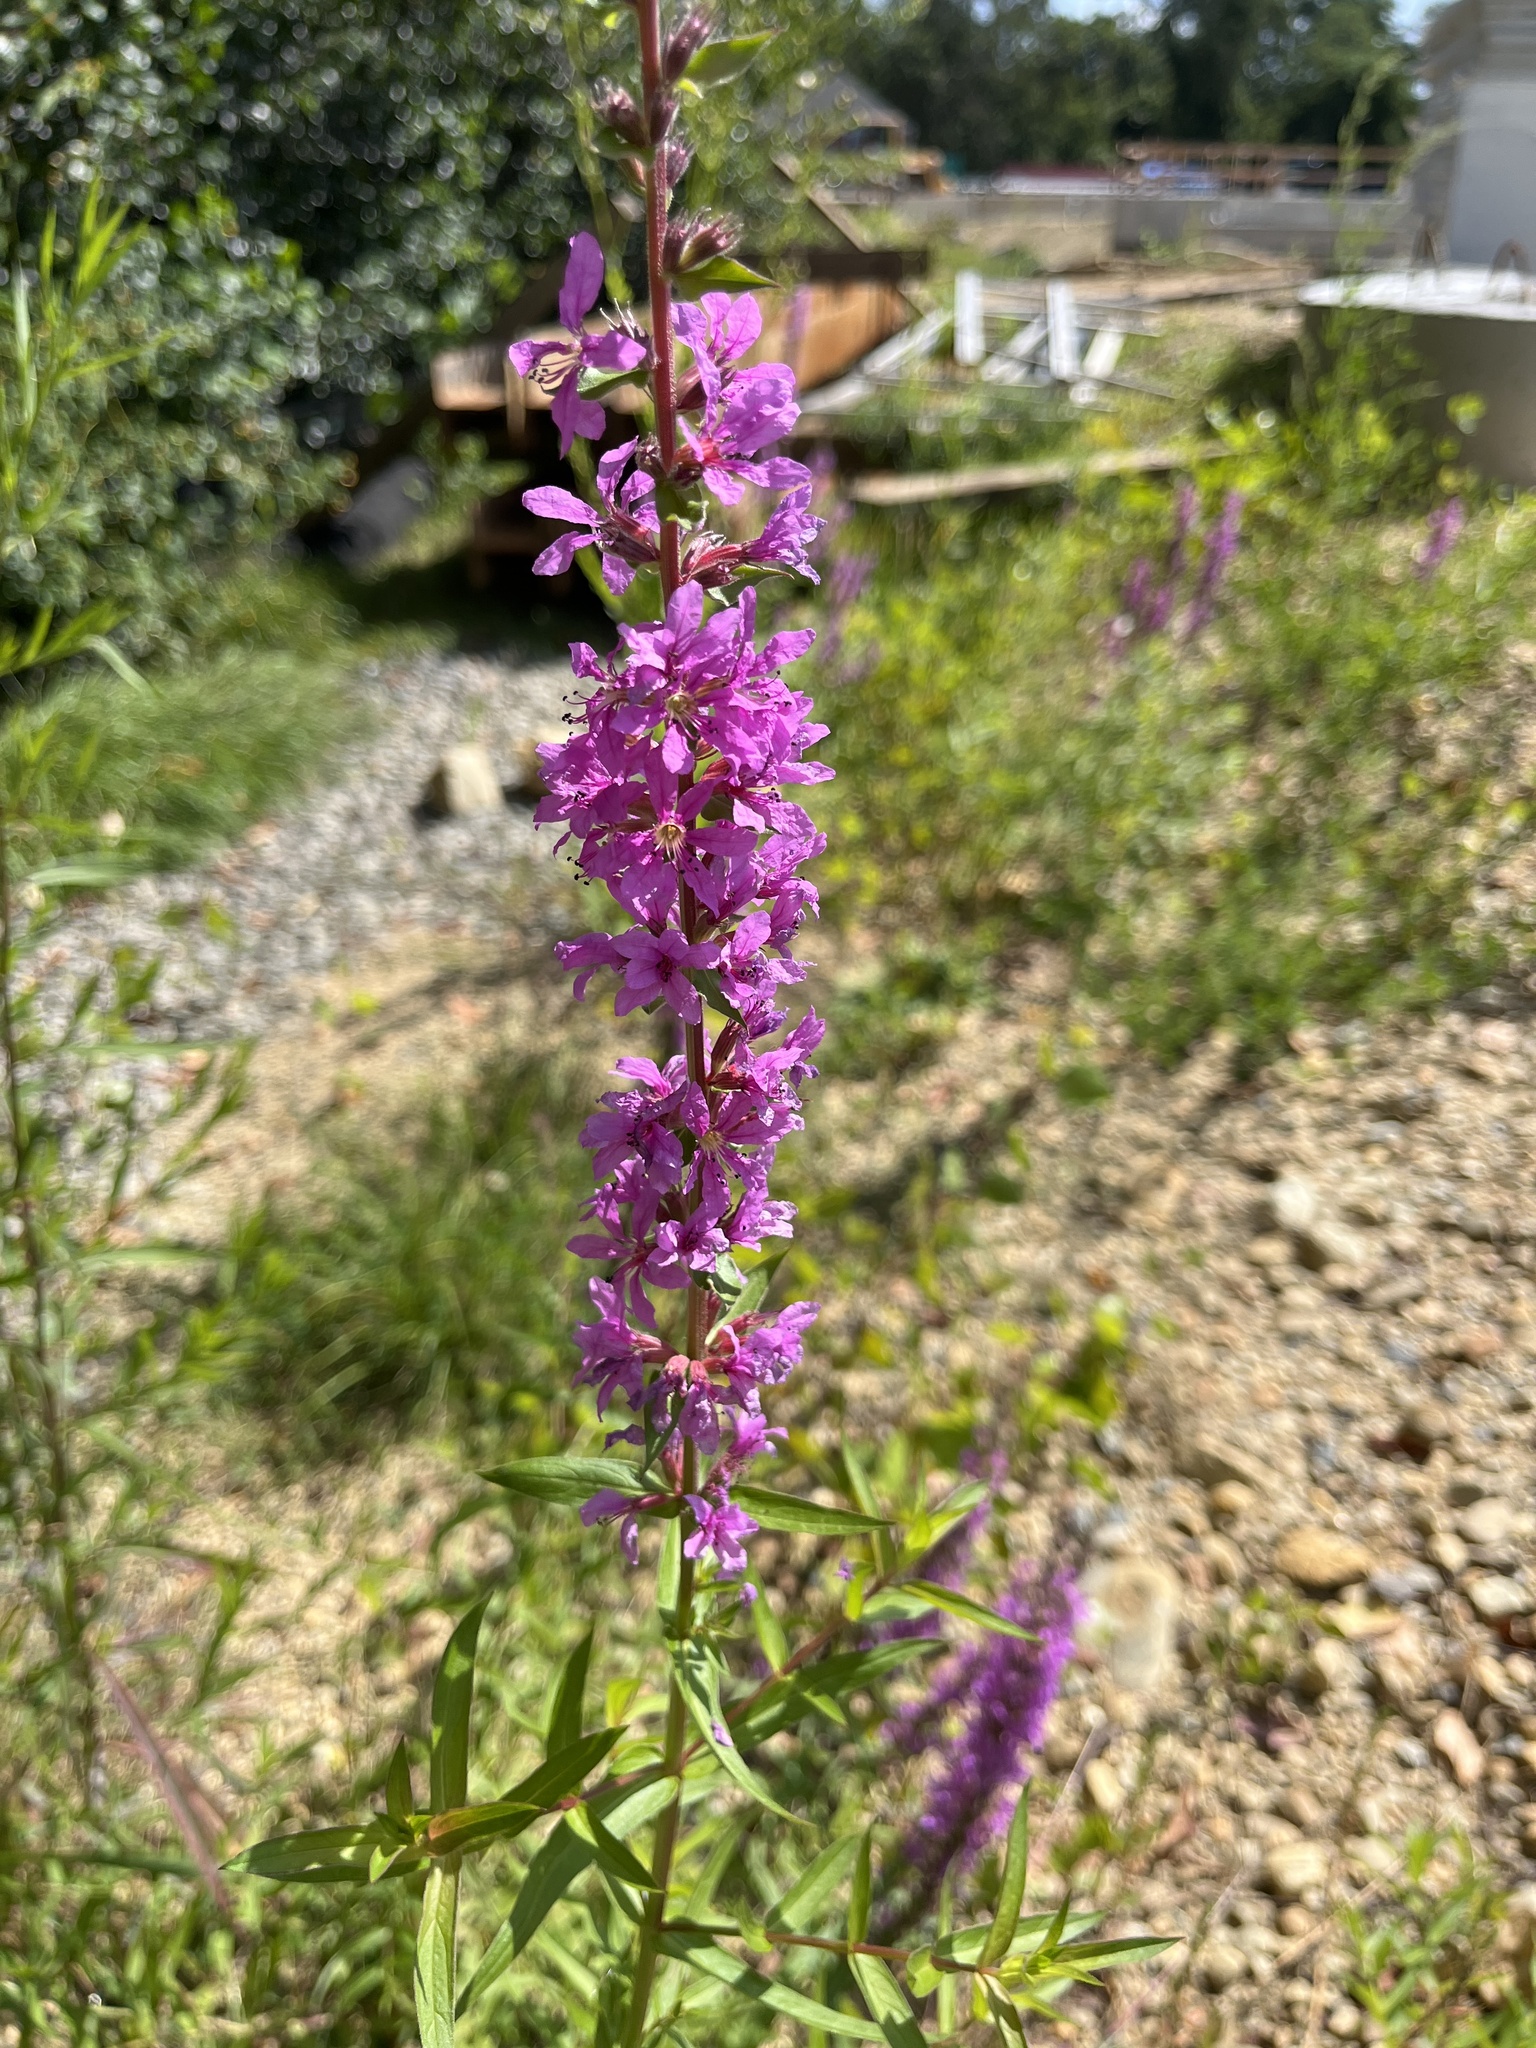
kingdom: Plantae
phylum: Tracheophyta
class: Magnoliopsida
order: Myrtales
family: Lythraceae
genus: Lythrum
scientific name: Lythrum salicaria
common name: Purple loosestrife
